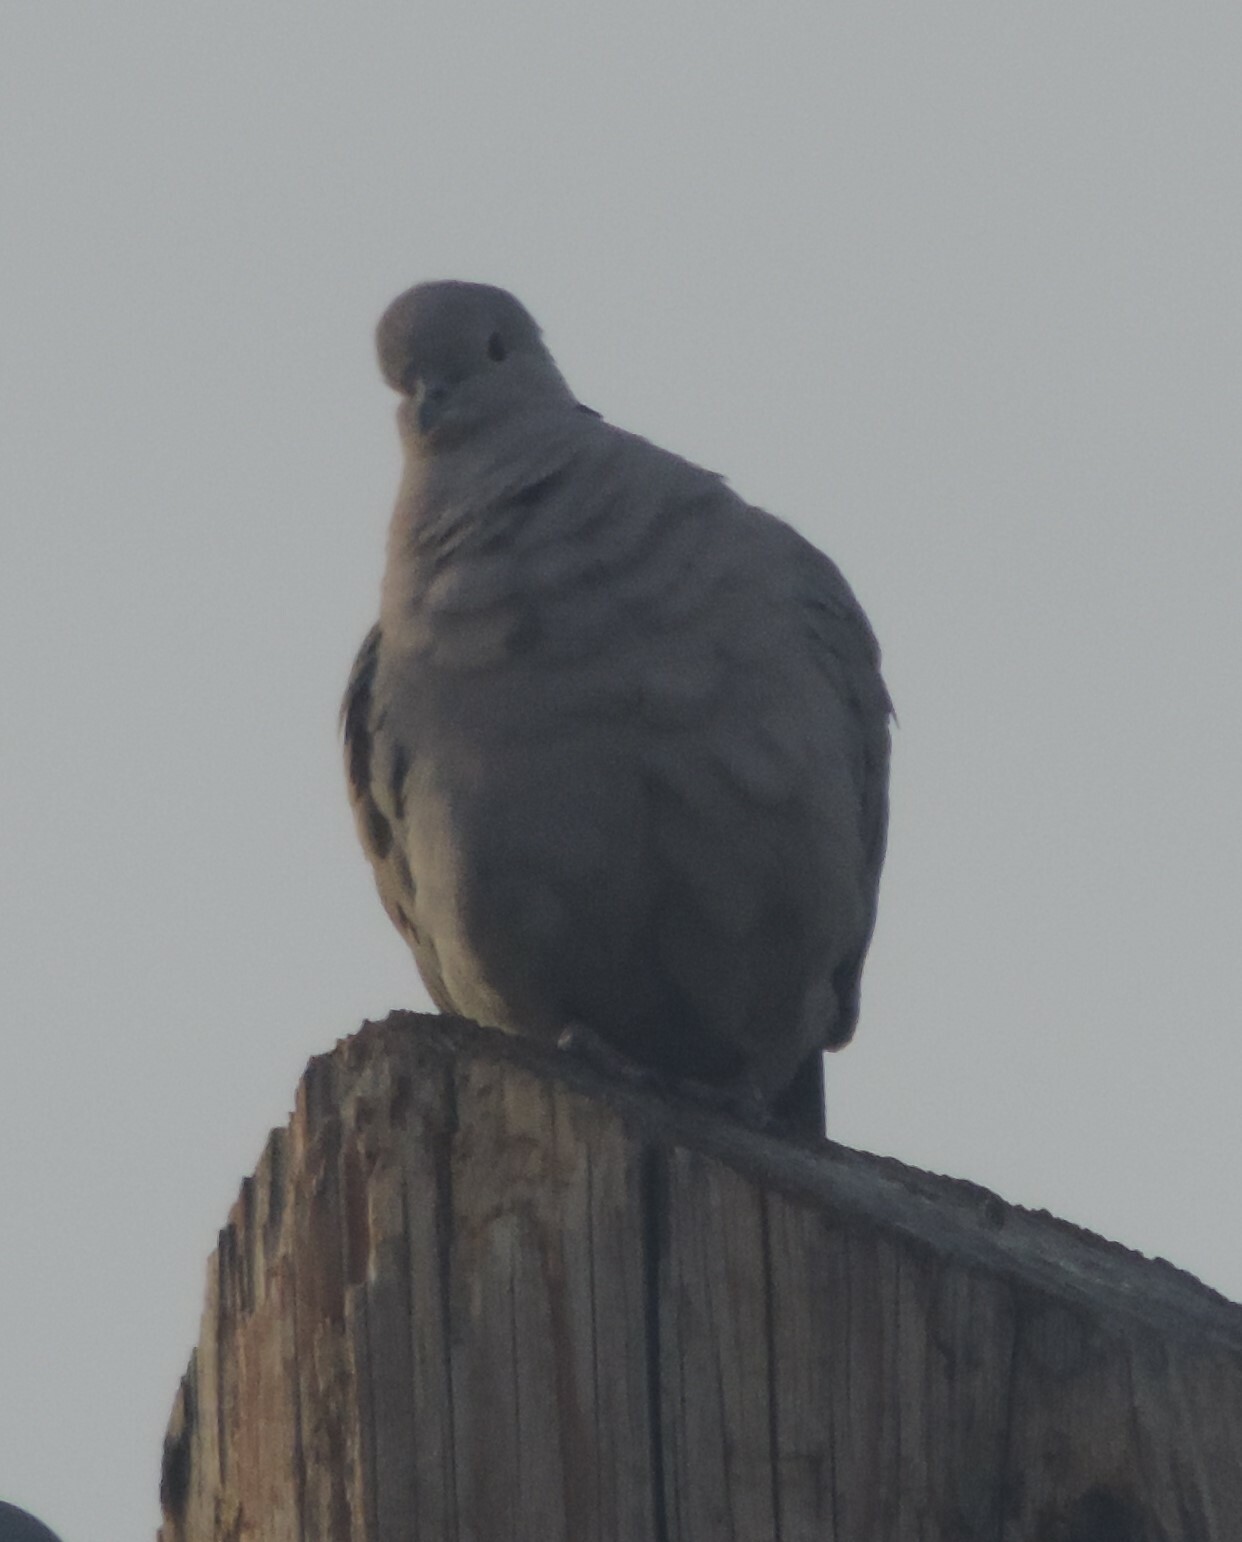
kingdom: Animalia
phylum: Chordata
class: Aves
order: Columbiformes
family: Columbidae
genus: Streptopelia
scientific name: Streptopelia decaocto
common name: Eurasian collared dove
